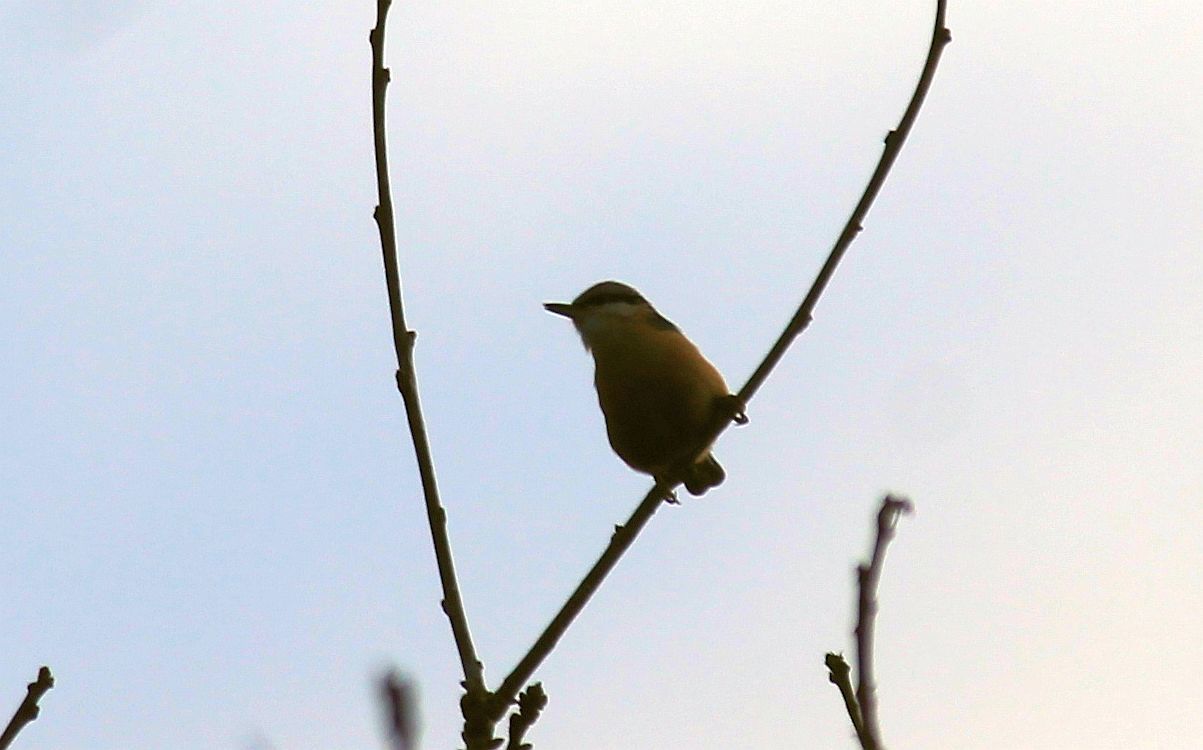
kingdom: Animalia
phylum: Chordata
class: Aves
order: Passeriformes
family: Sittidae
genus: Sitta
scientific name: Sitta europaea
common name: Eurasian nuthatch
